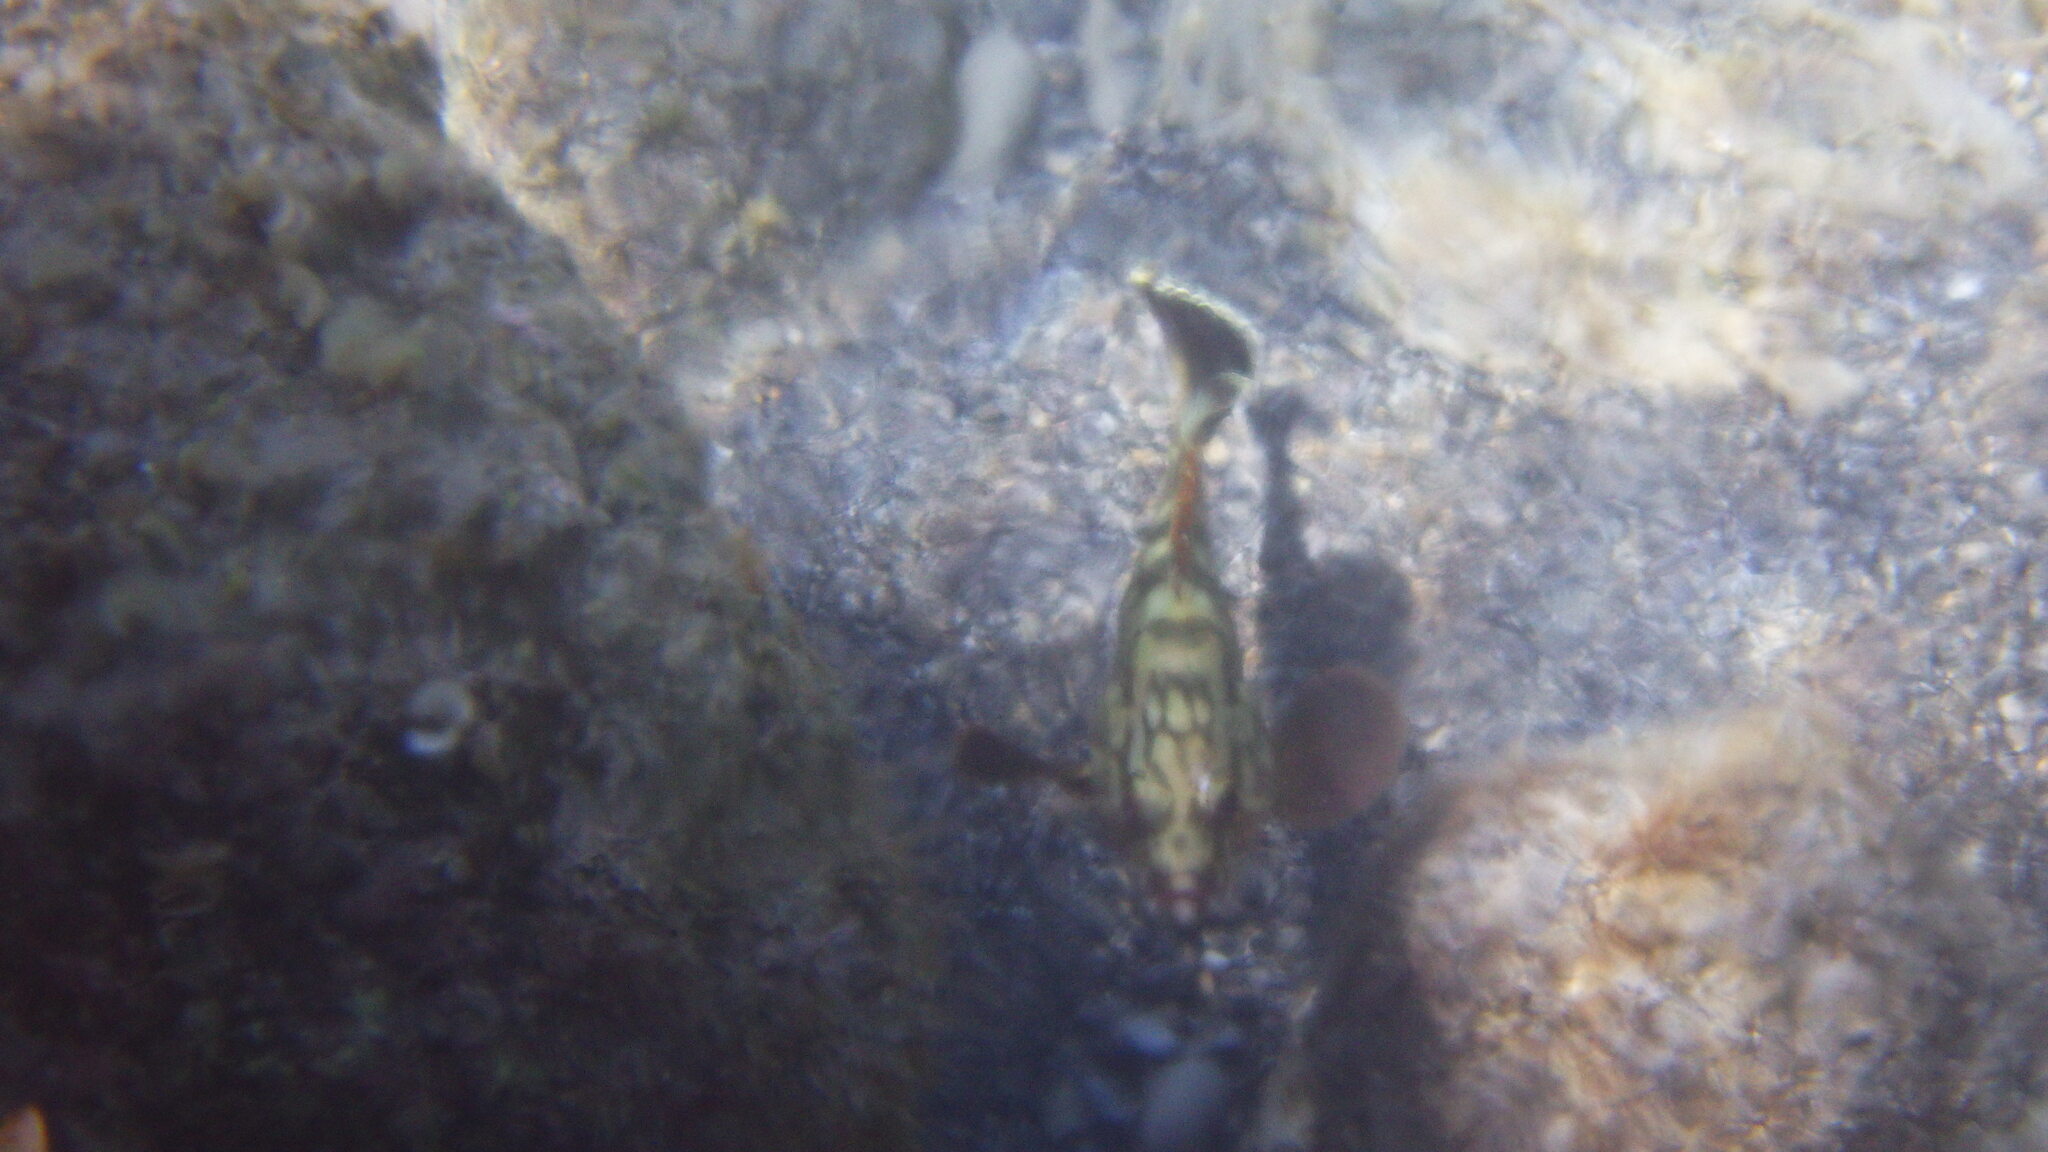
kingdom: Animalia
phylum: Chordata
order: Perciformes
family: Serranidae
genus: Epinephelus
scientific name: Epinephelus marginatus
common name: Dusky grouper
